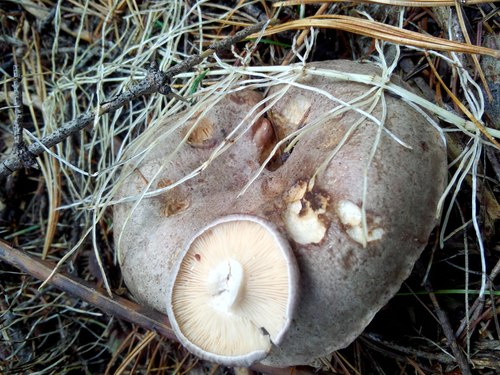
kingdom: Fungi
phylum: Basidiomycota
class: Agaricomycetes
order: Russulales
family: Russulaceae
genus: Lactarius
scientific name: Lactarius flexuosus
